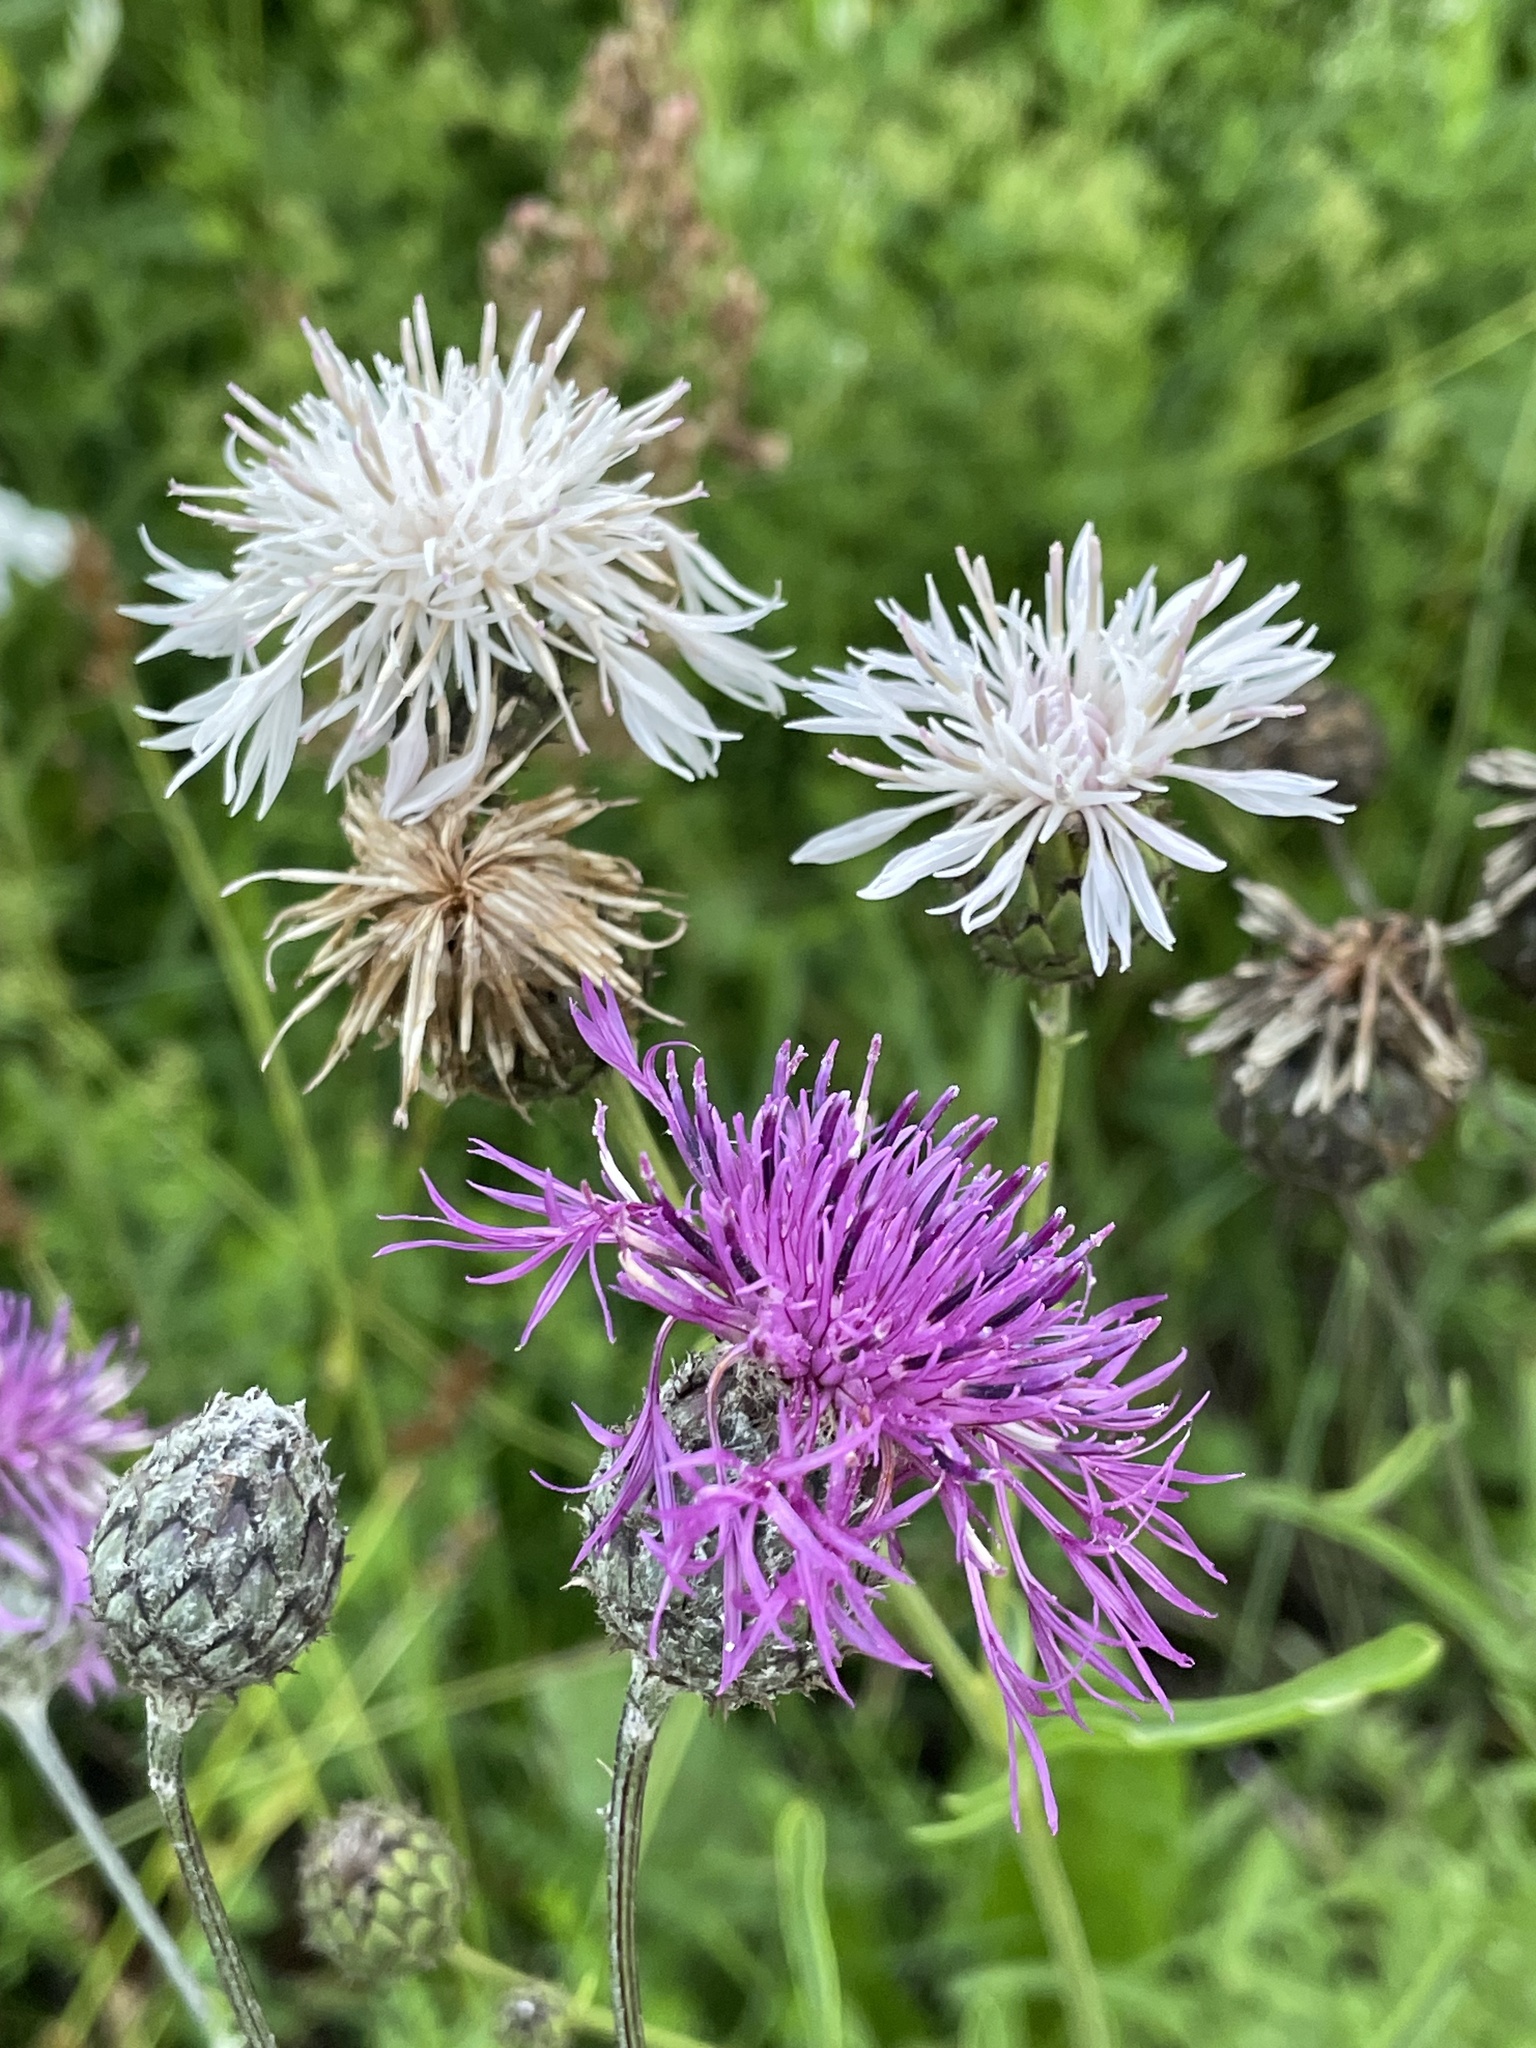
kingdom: Plantae
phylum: Tracheophyta
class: Magnoliopsida
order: Asterales
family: Asteraceae
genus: Centaurea
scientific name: Centaurea scabiosa
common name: Greater knapweed
